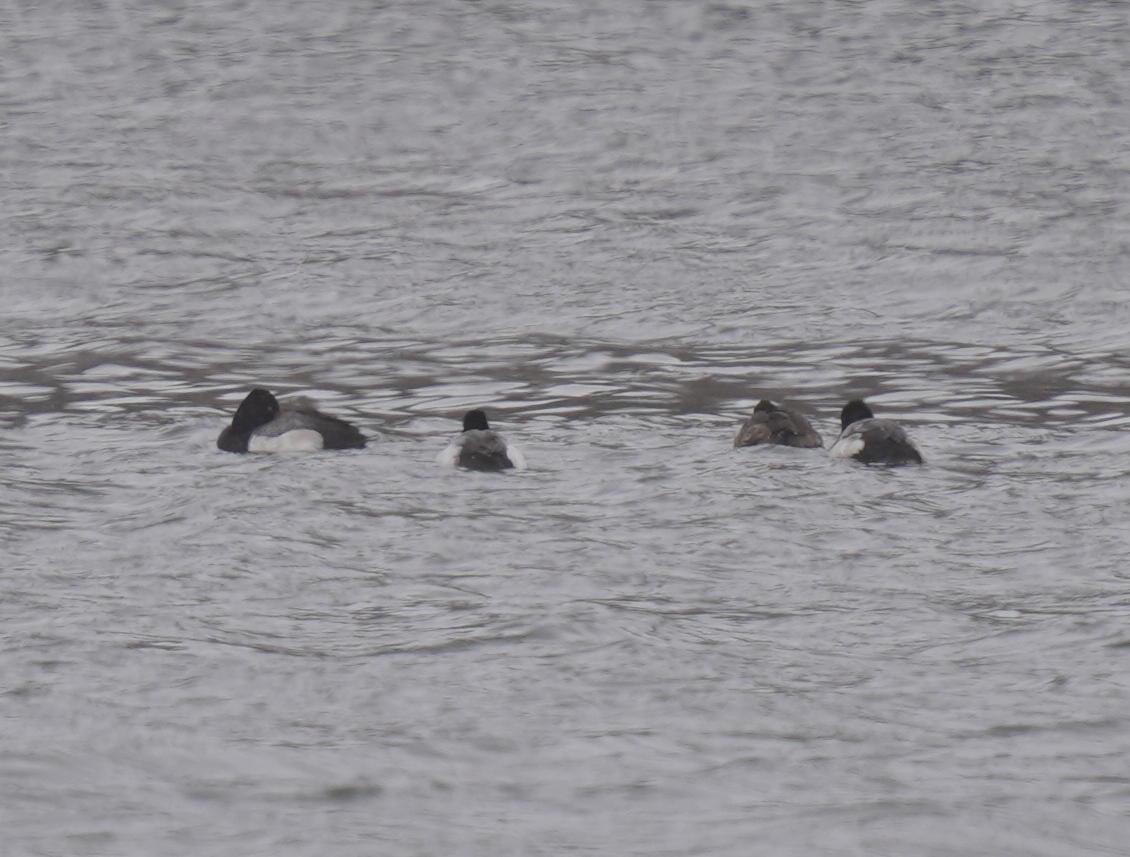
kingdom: Animalia
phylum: Chordata
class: Aves
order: Anseriformes
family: Anatidae
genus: Aythya
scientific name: Aythya affinis
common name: Lesser scaup
